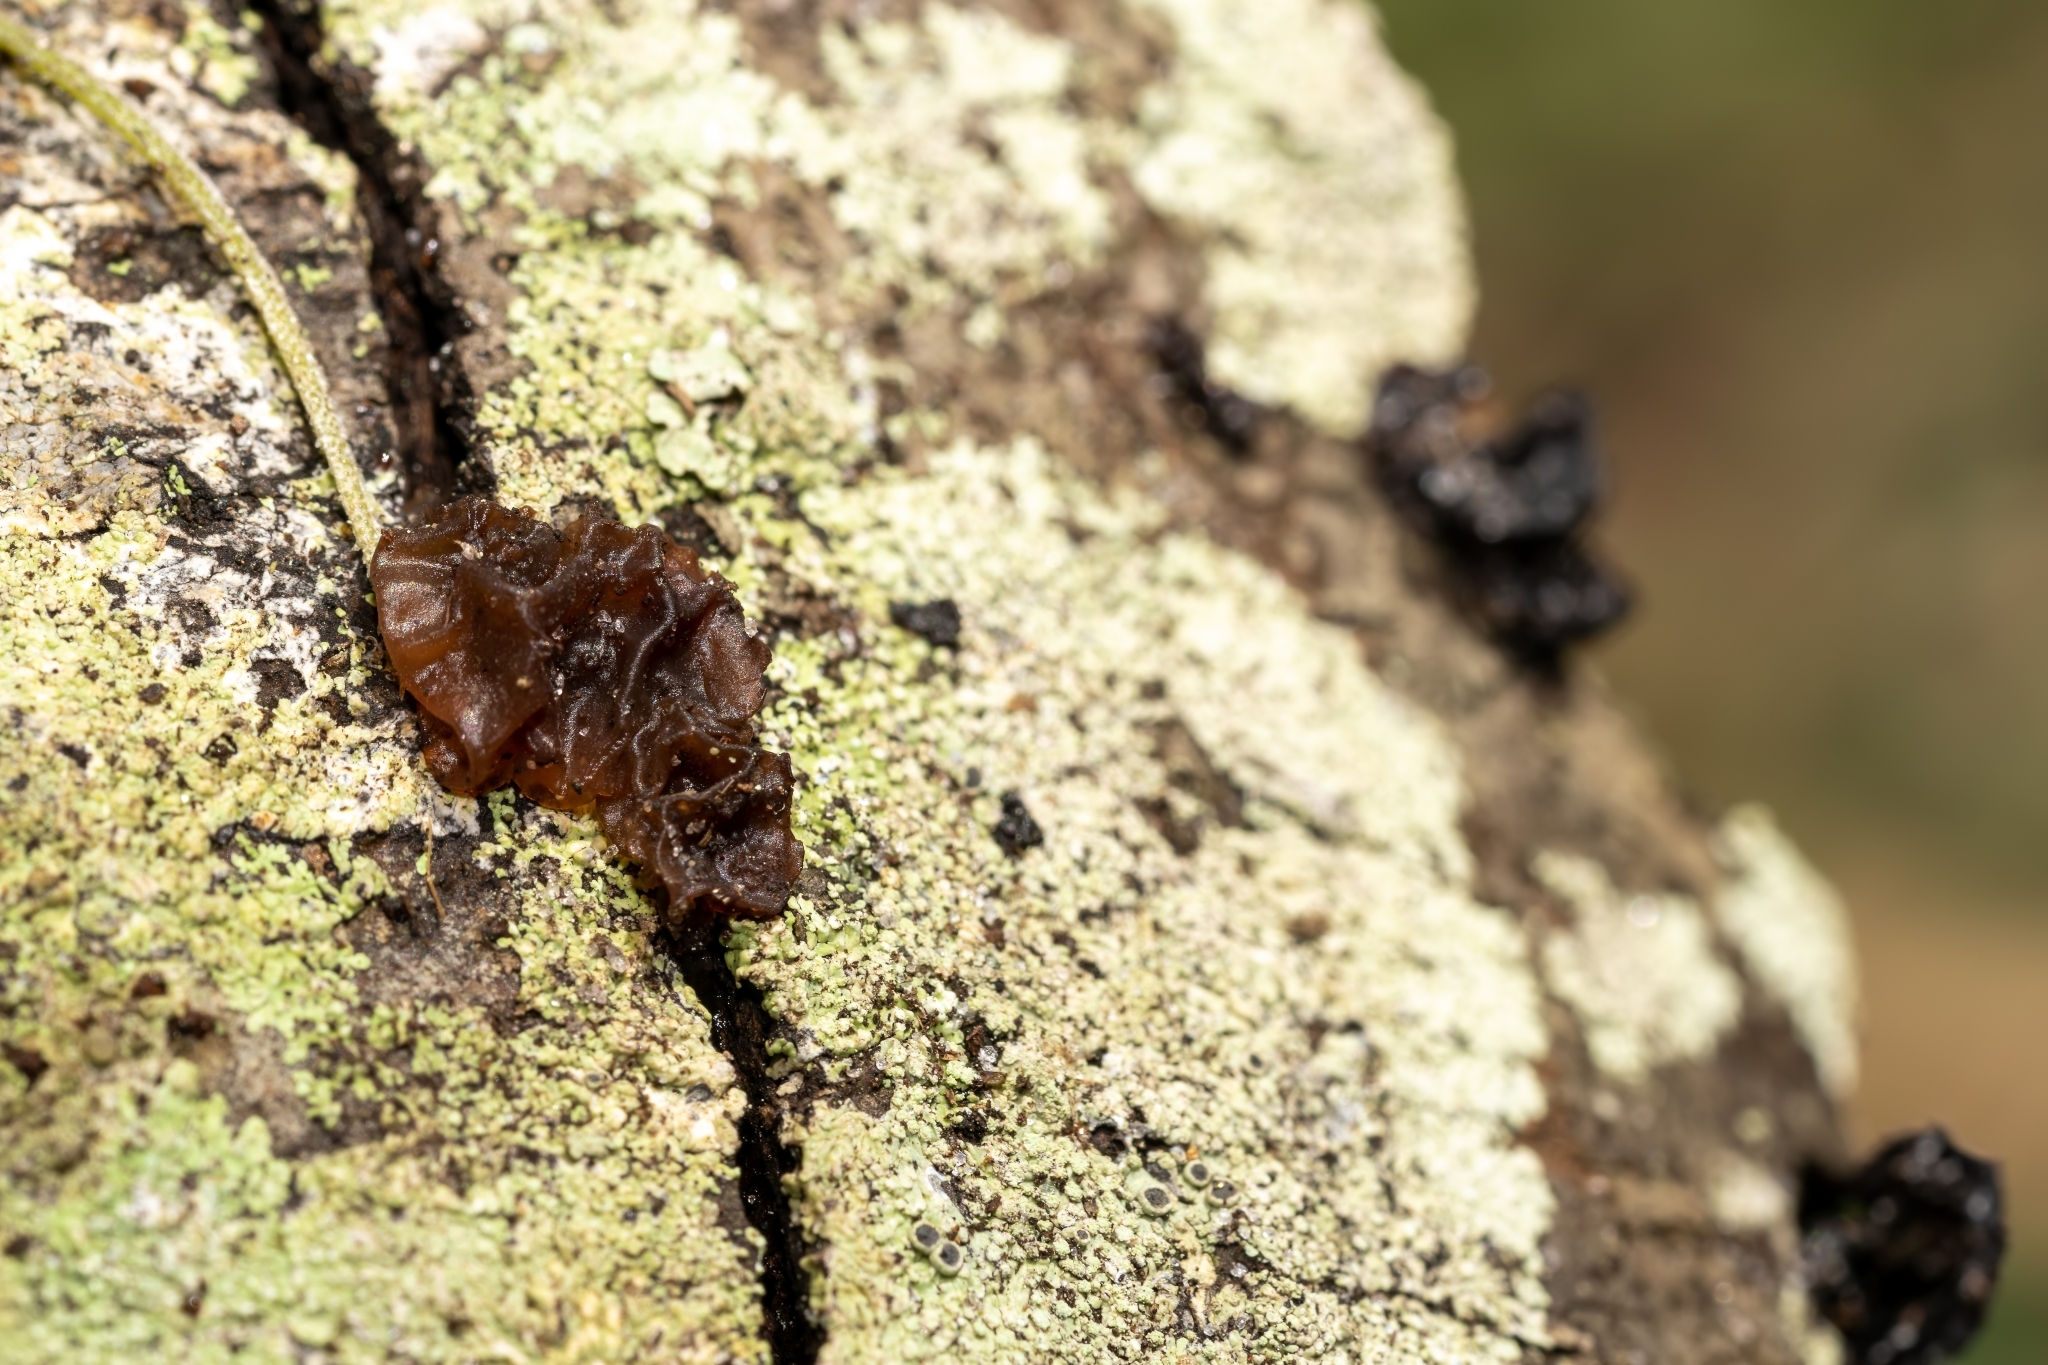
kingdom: Fungi
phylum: Basidiomycota
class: Agaricomycetes
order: Auriculariales
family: Auriculariaceae
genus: Exidia
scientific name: Exidia
